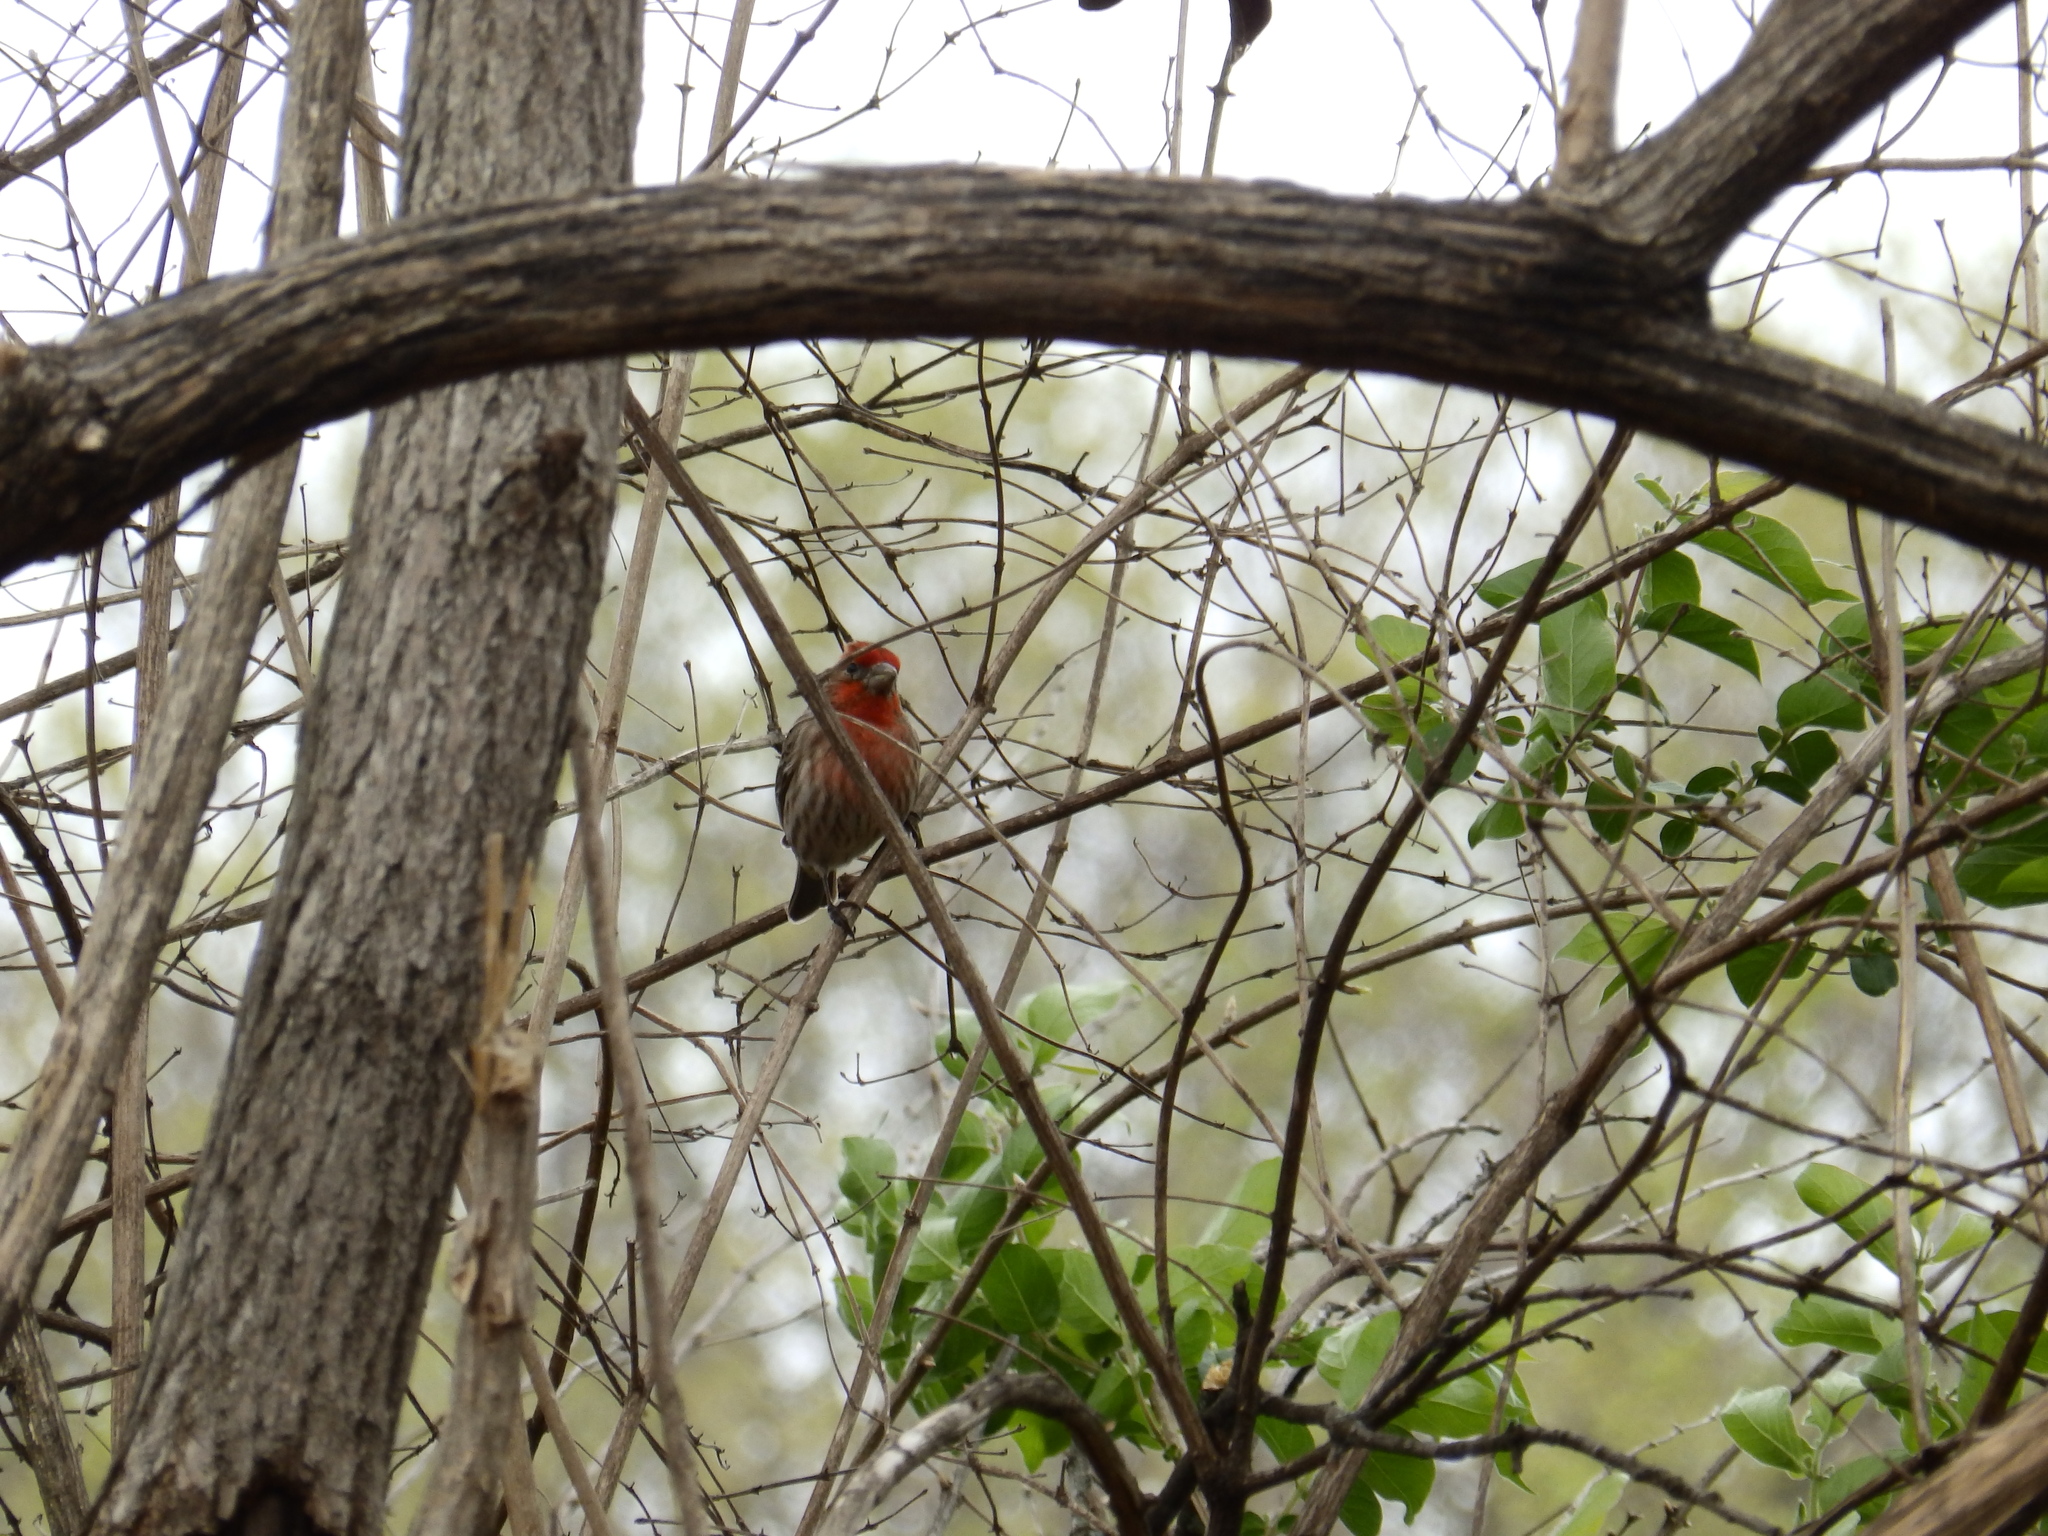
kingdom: Animalia
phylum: Chordata
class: Aves
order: Passeriformes
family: Fringillidae
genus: Haemorhous
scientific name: Haemorhous mexicanus
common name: House finch
